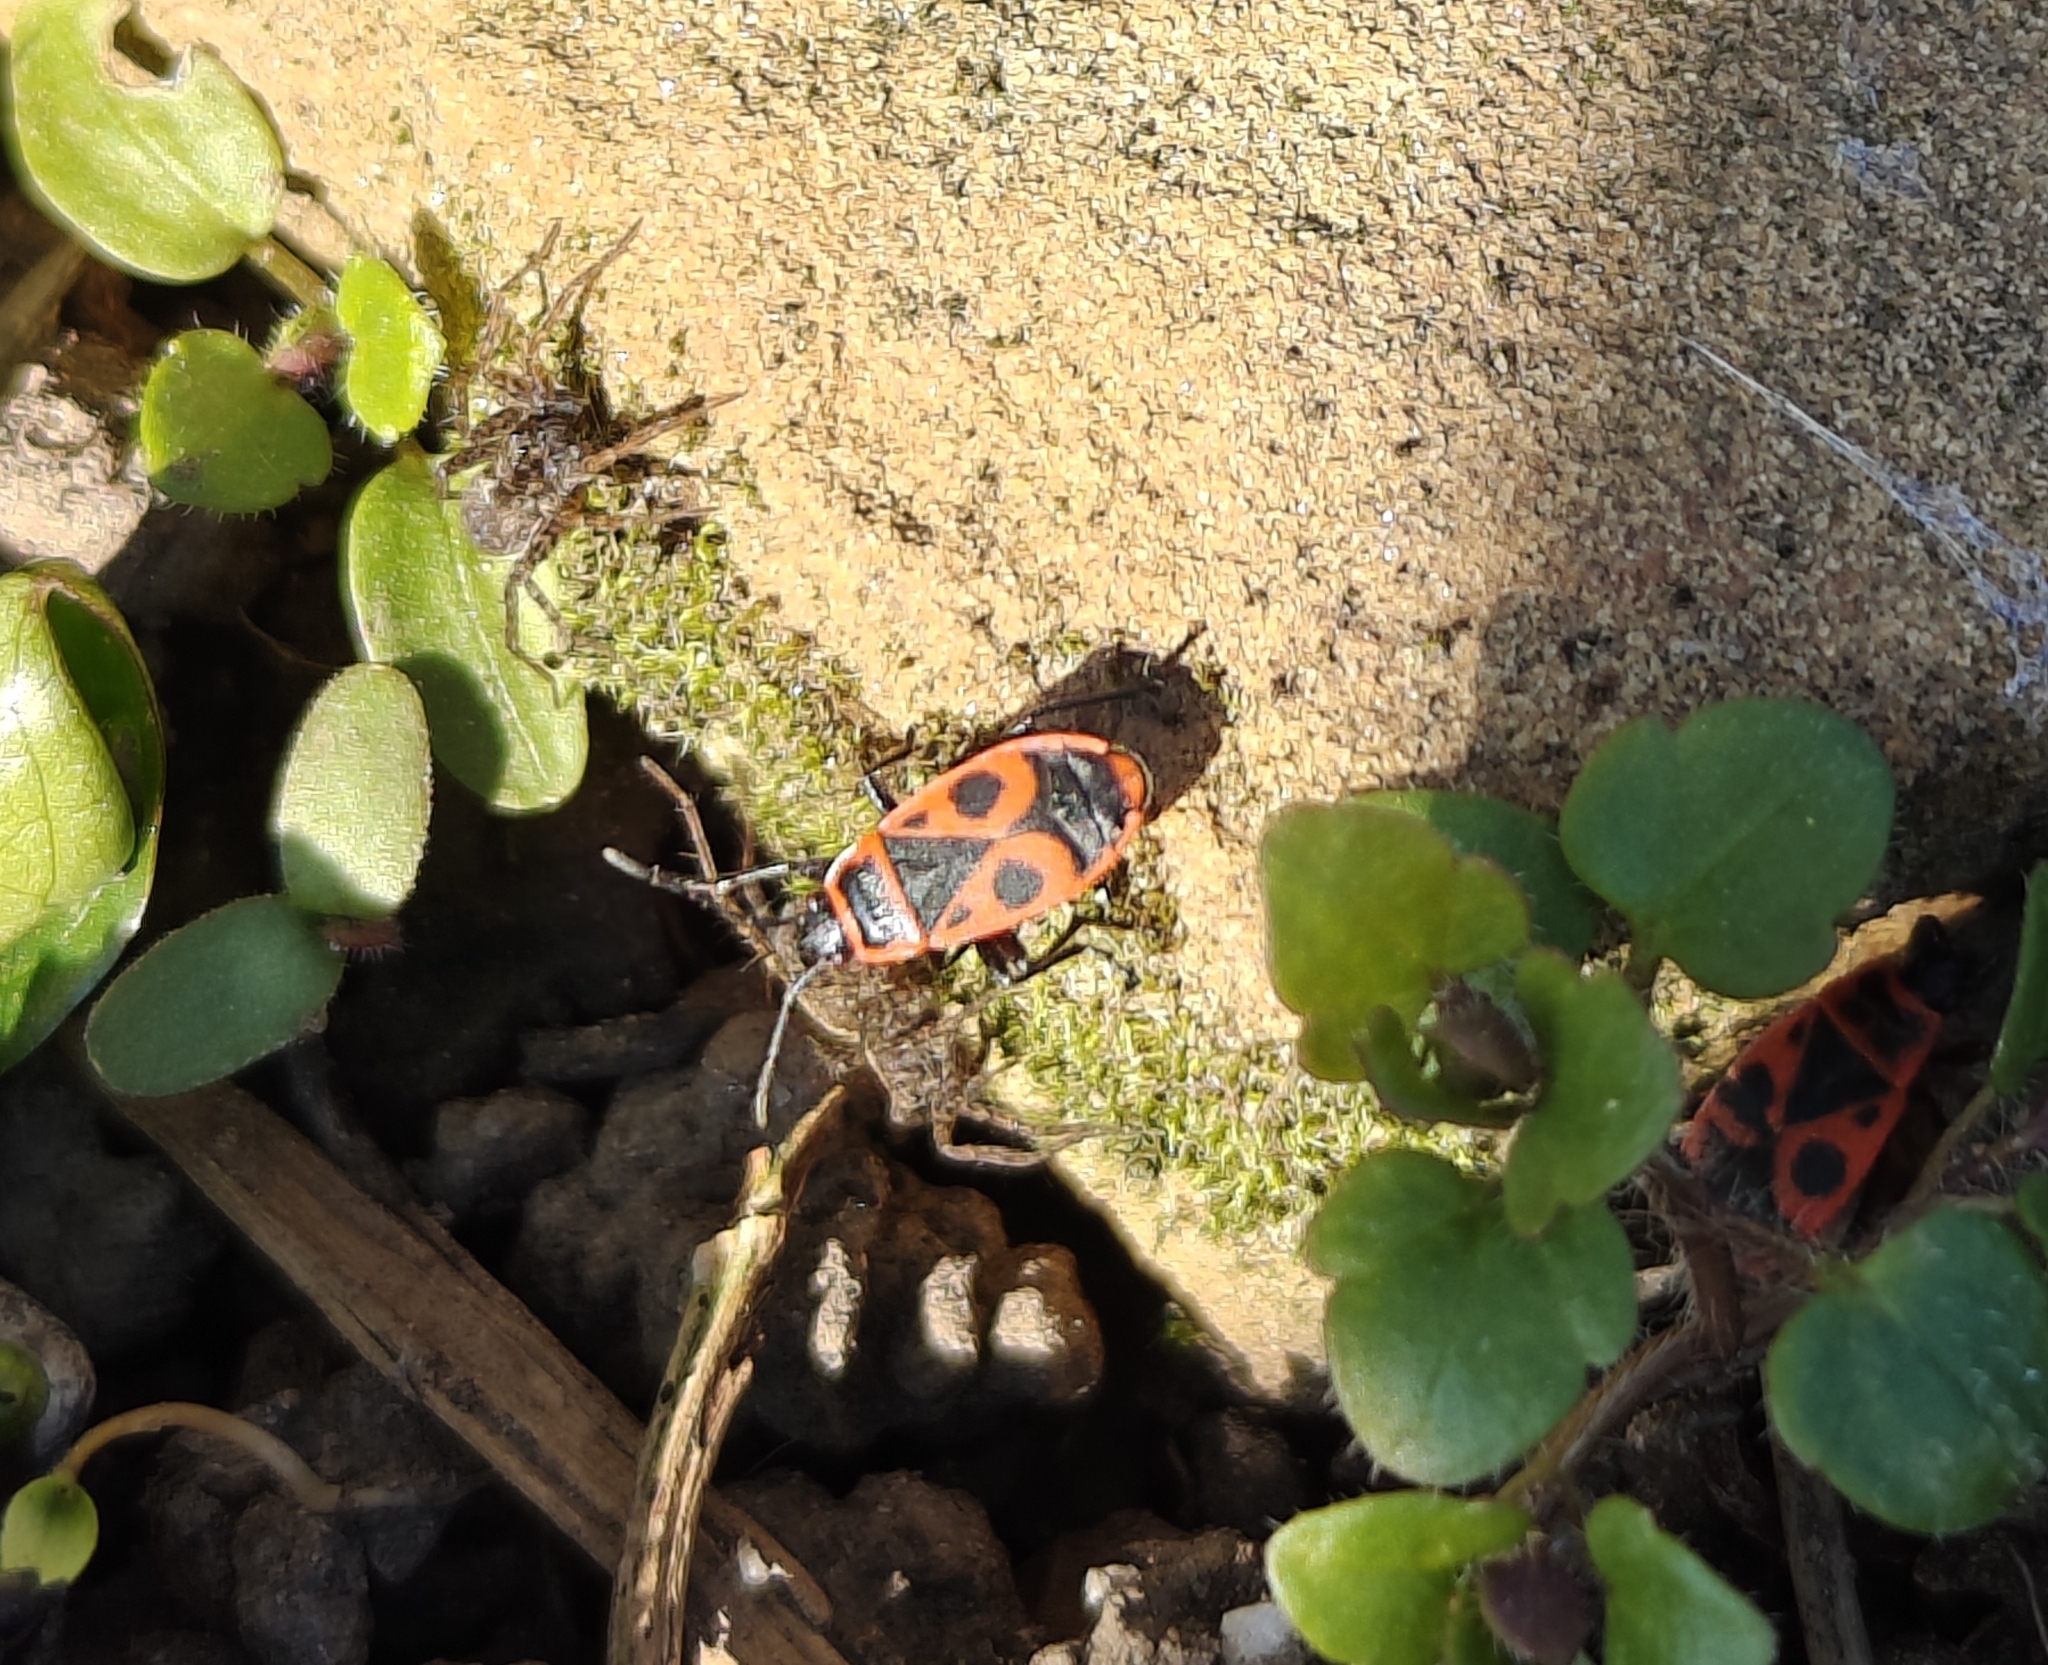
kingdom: Animalia
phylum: Arthropoda
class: Insecta
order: Hemiptera
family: Pyrrhocoridae
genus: Pyrrhocoris
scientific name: Pyrrhocoris apterus
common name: Firebug
